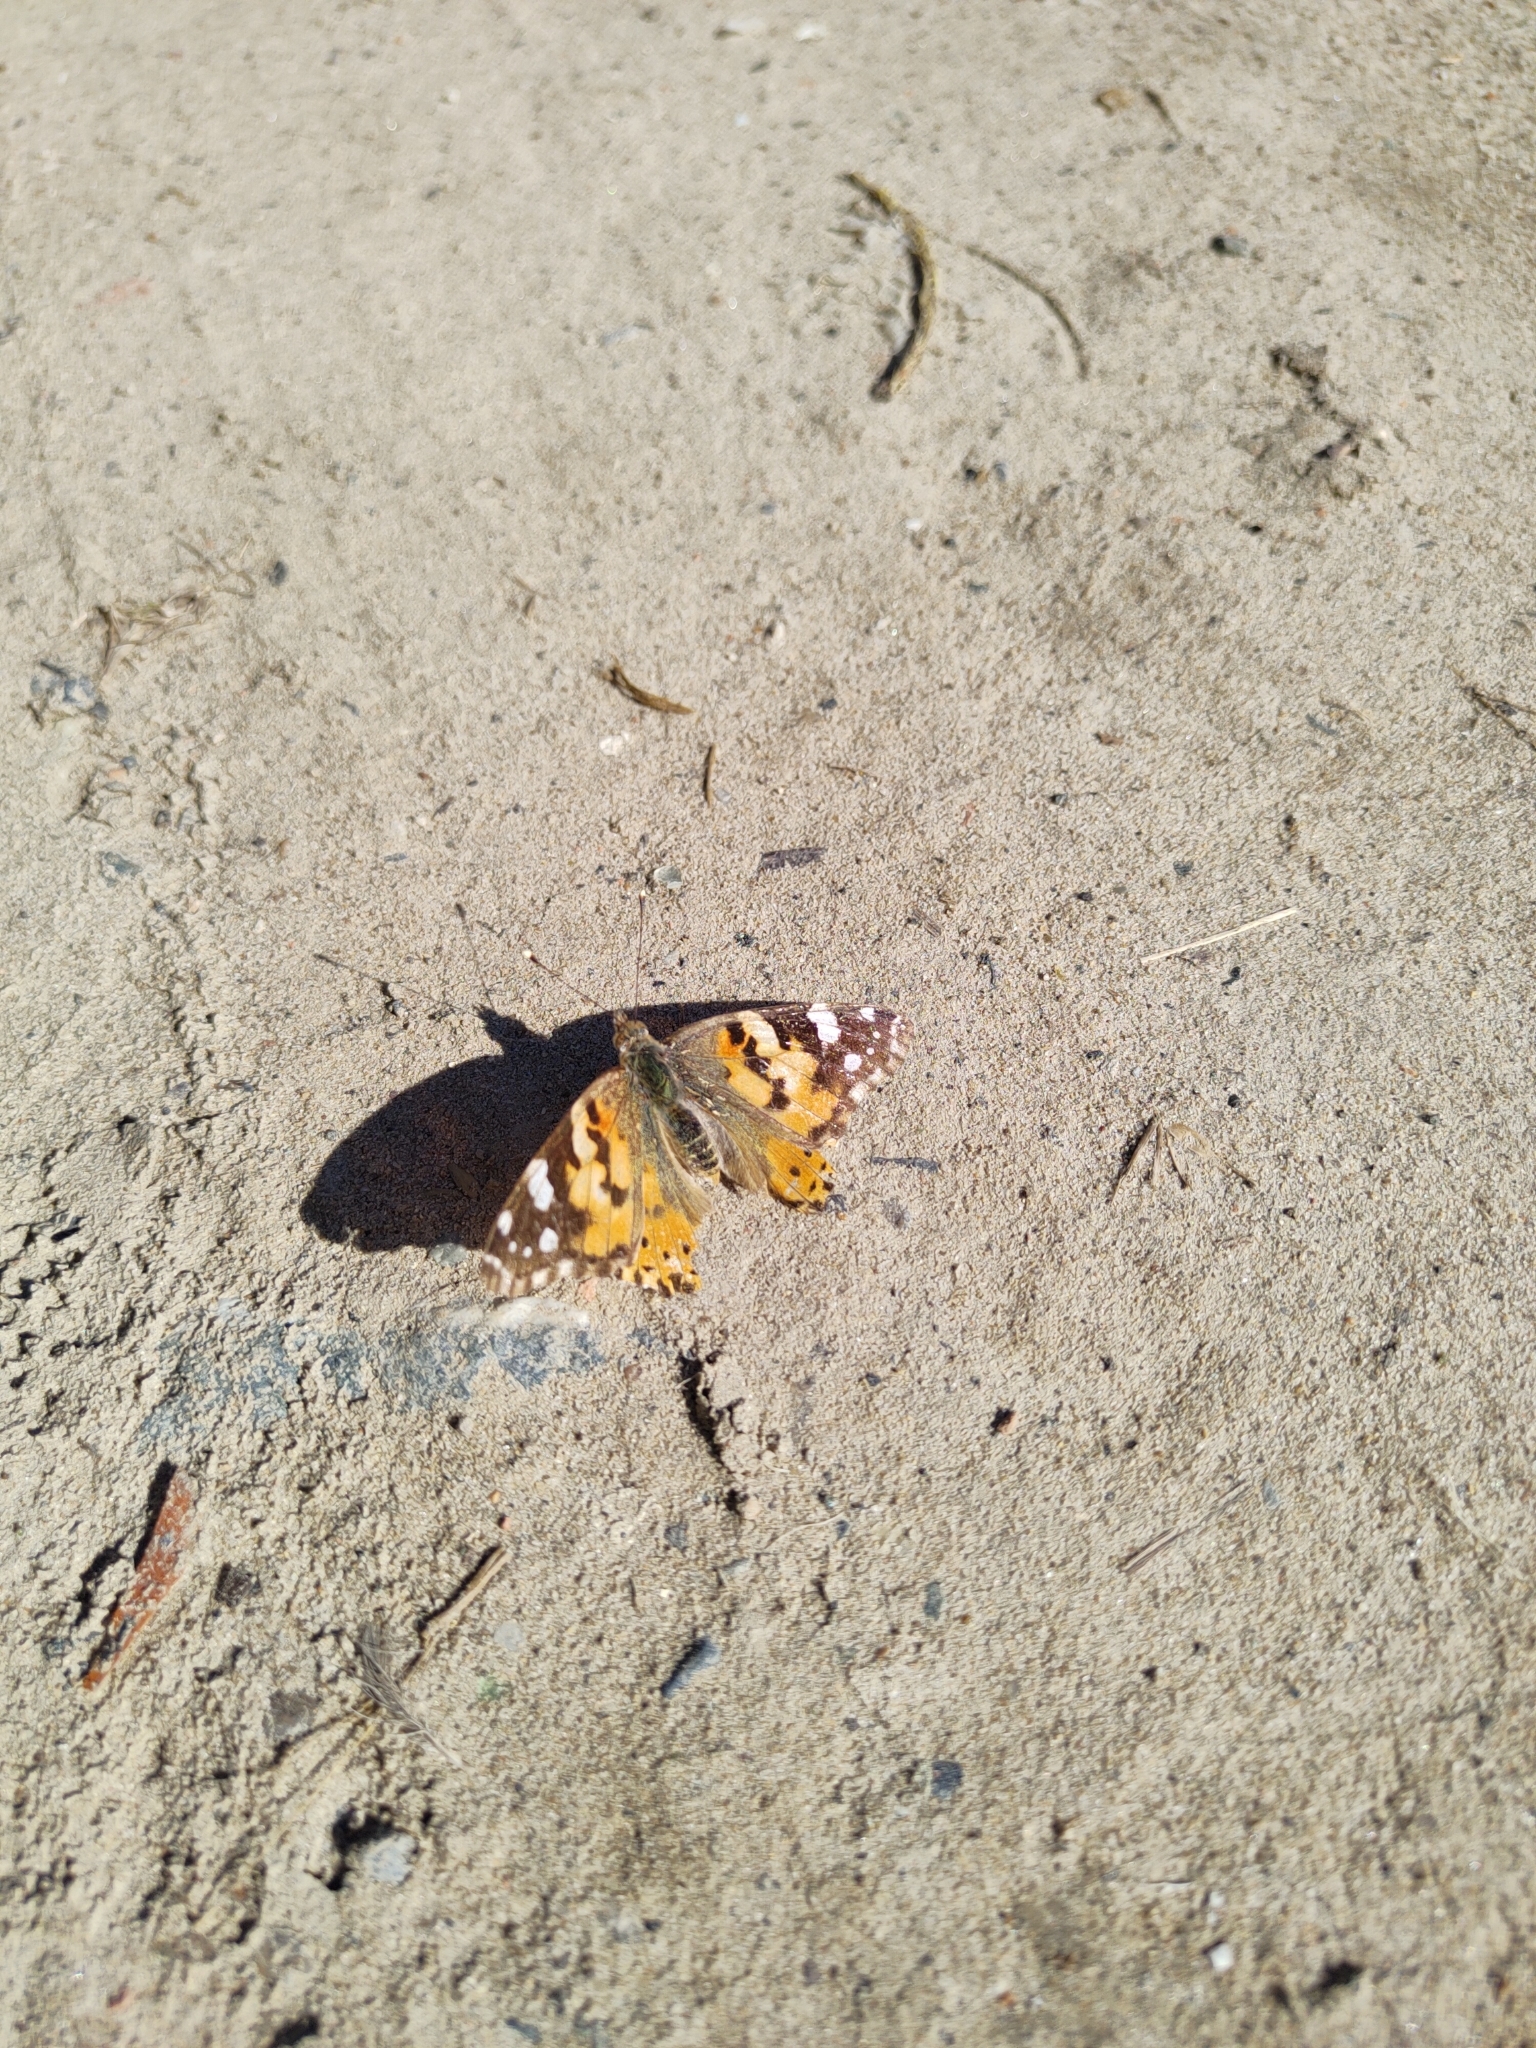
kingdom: Animalia
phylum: Arthropoda
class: Insecta
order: Lepidoptera
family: Nymphalidae
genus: Vanessa
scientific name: Vanessa cardui
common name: Painted lady
